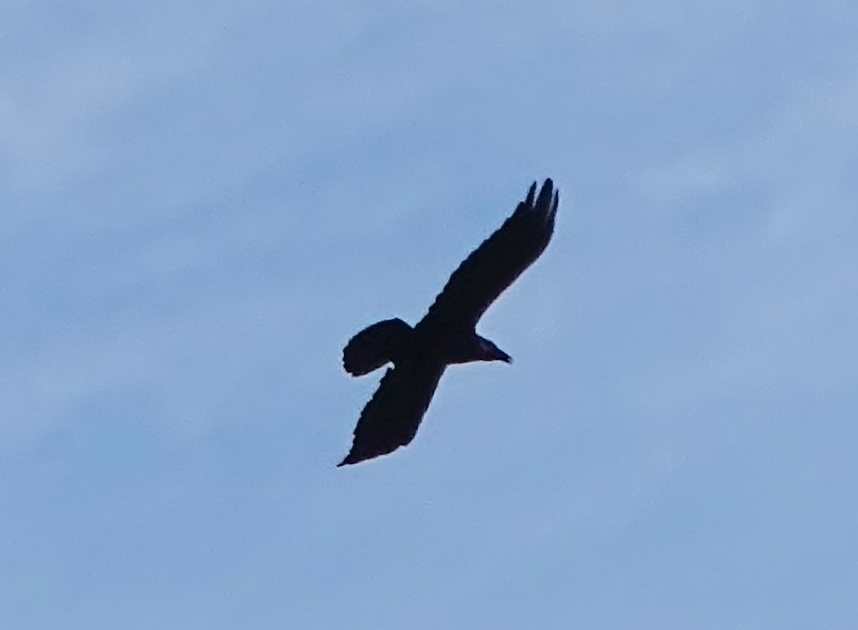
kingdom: Animalia
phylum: Chordata
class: Aves
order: Passeriformes
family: Corvidae
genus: Corvus
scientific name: Corvus corax
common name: Common raven
